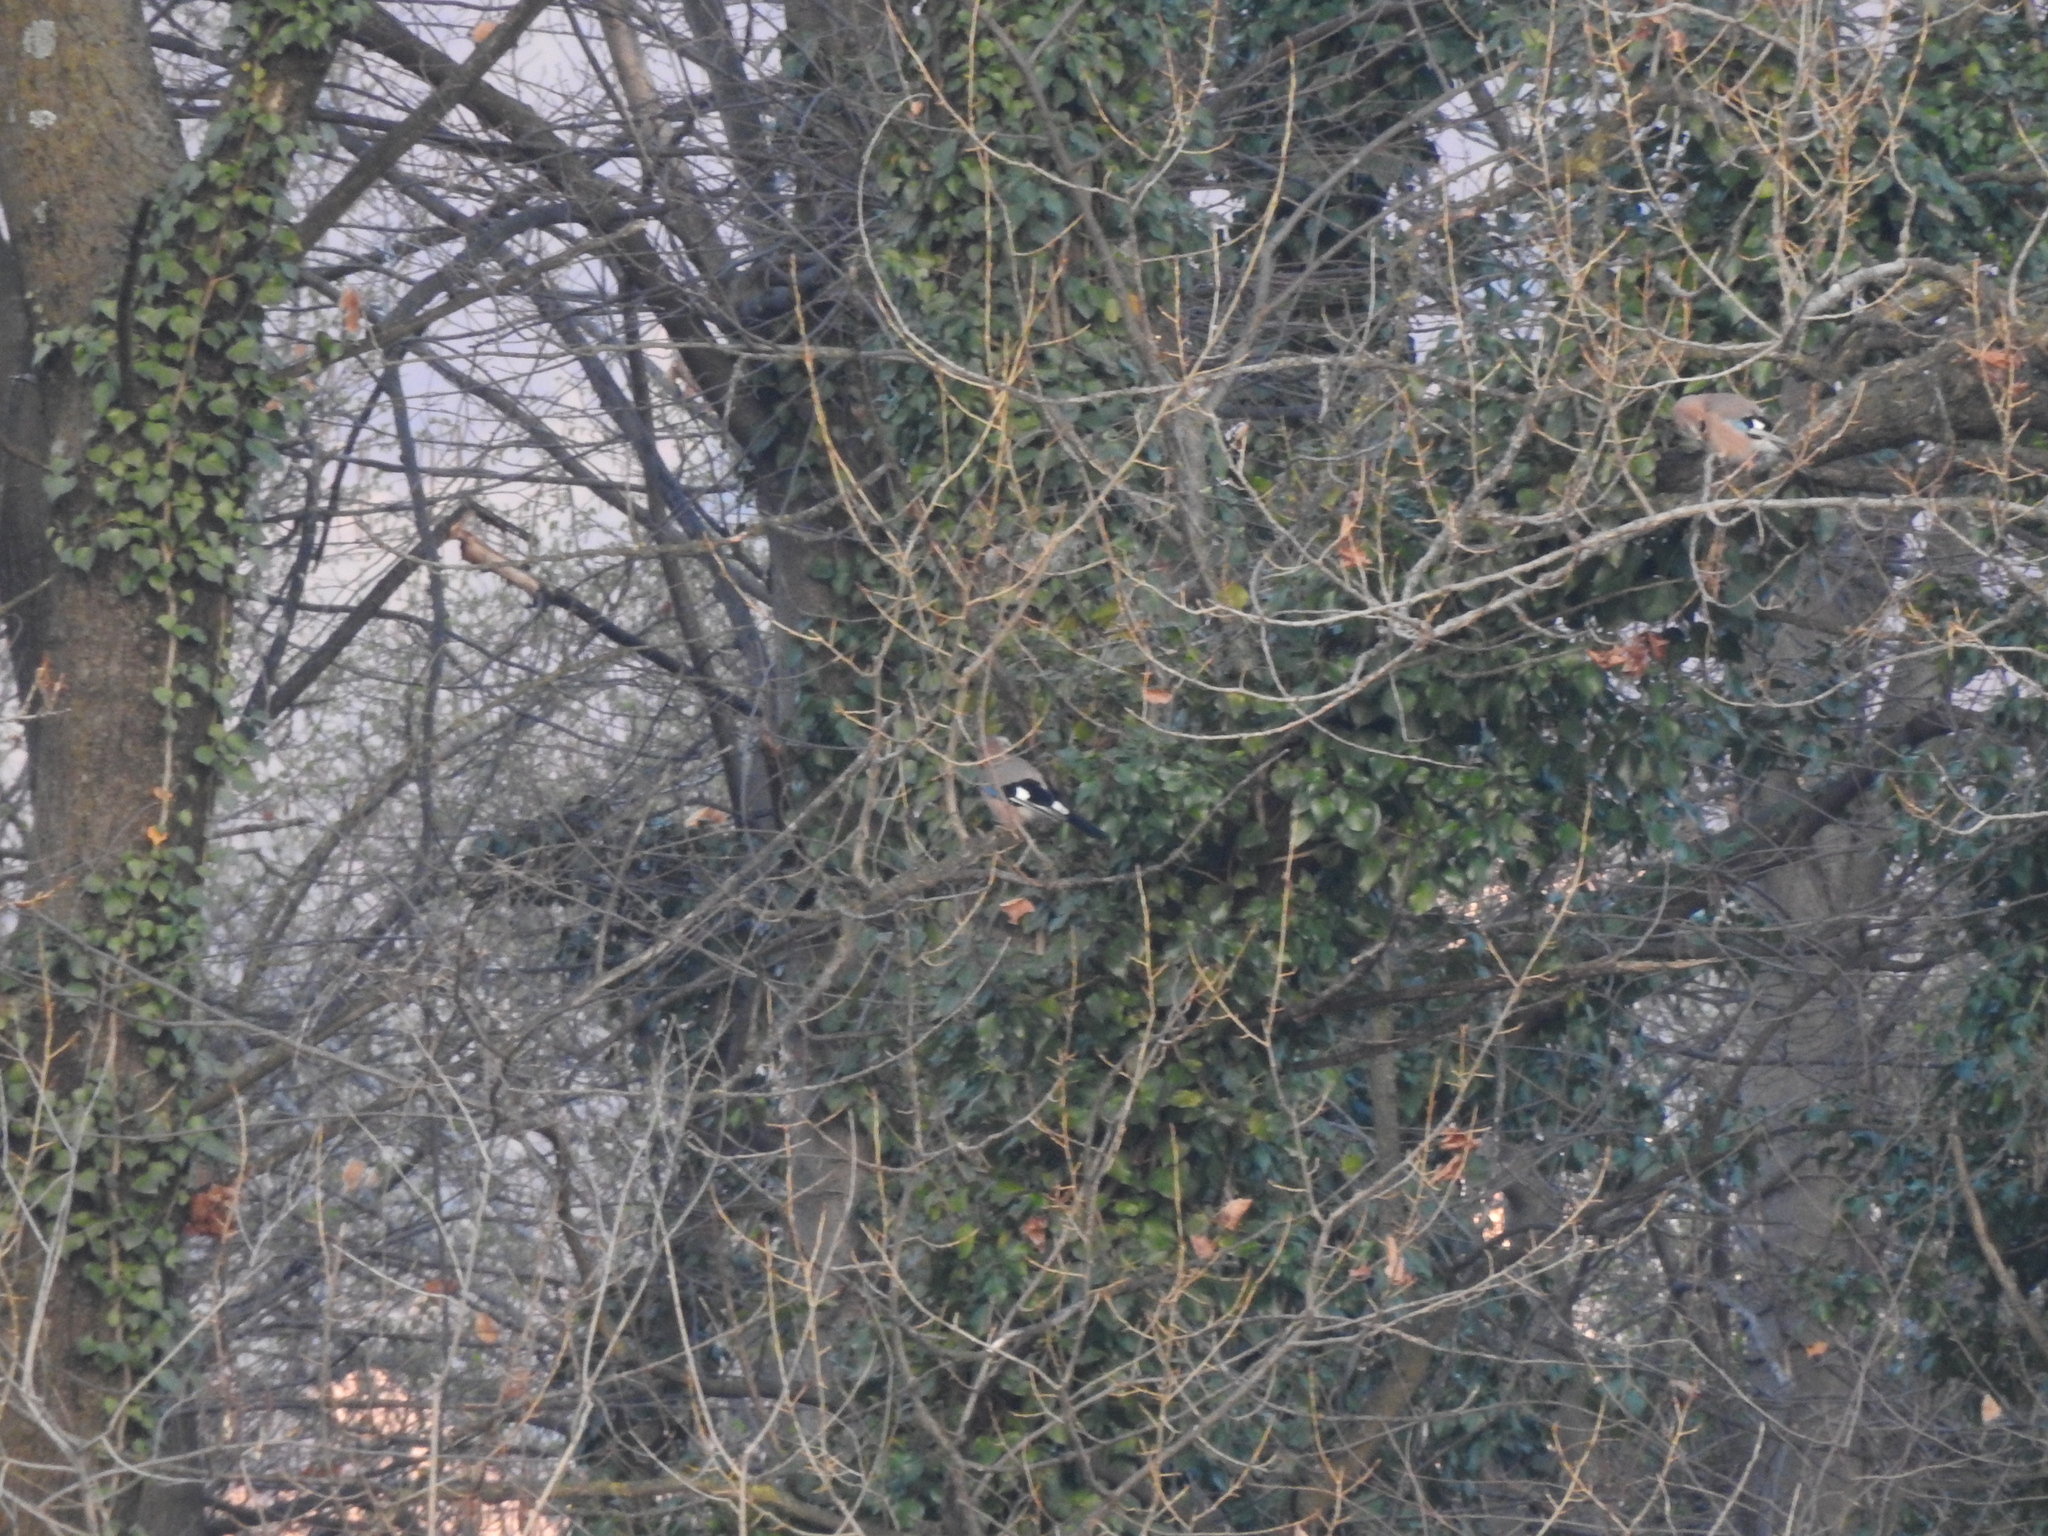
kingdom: Animalia
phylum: Chordata
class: Aves
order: Passeriformes
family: Corvidae
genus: Garrulus
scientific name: Garrulus glandarius
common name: Eurasian jay
